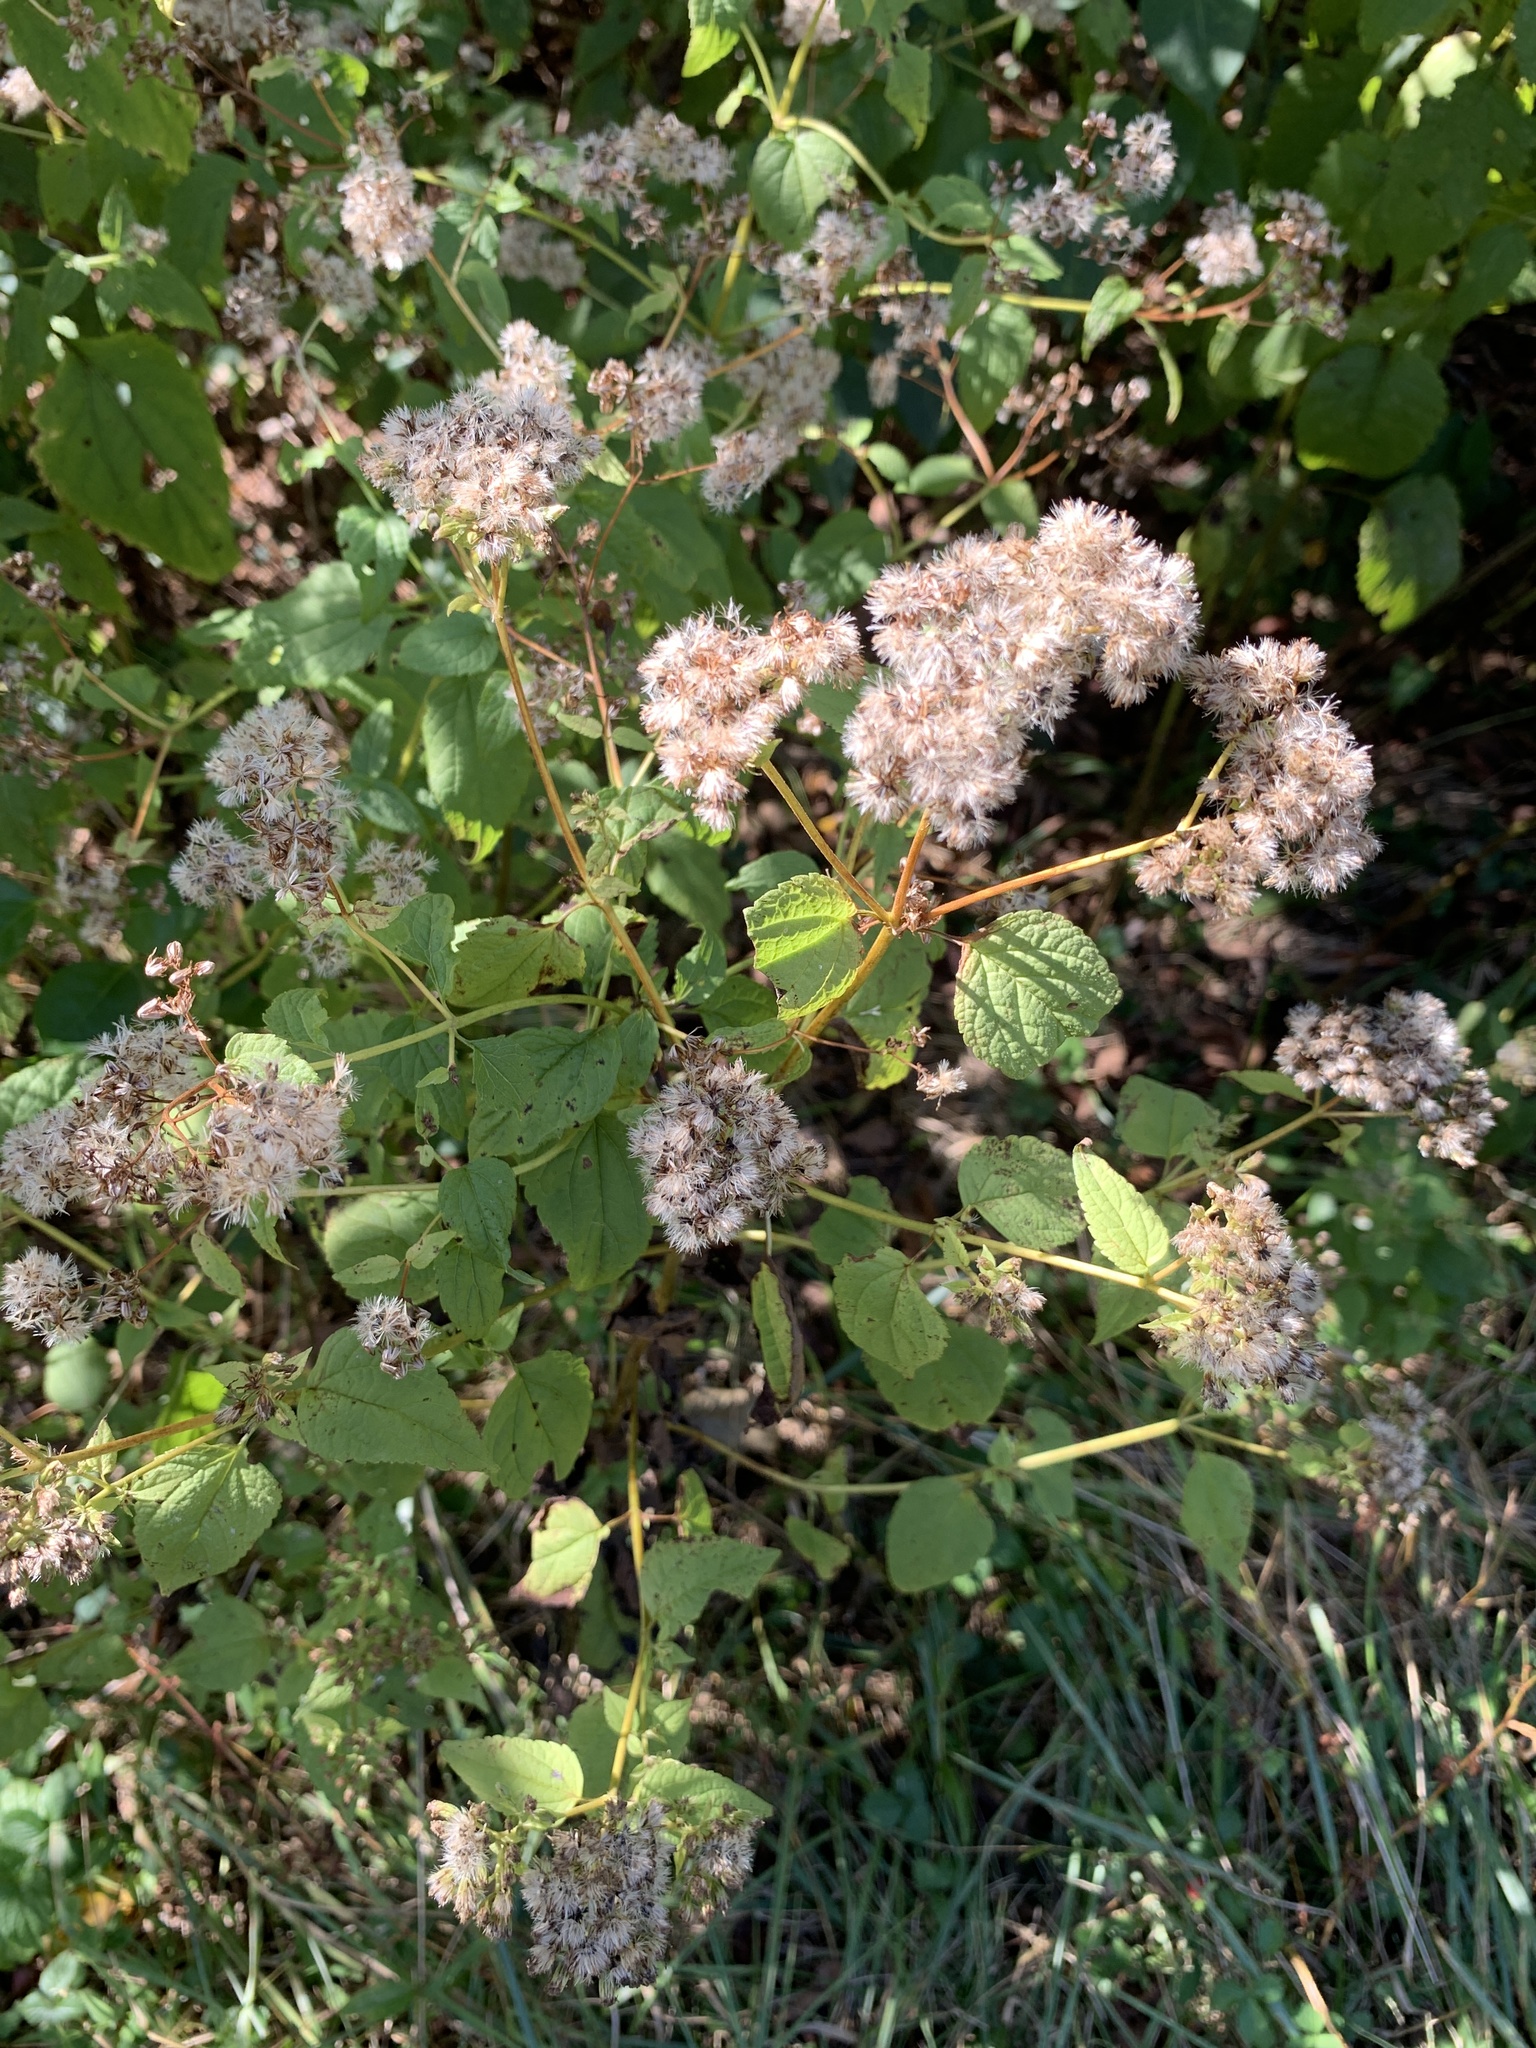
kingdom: Plantae
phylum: Tracheophyta
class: Magnoliopsida
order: Asterales
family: Asteraceae
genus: Ageratina
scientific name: Ageratina altissima
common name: White snakeroot
